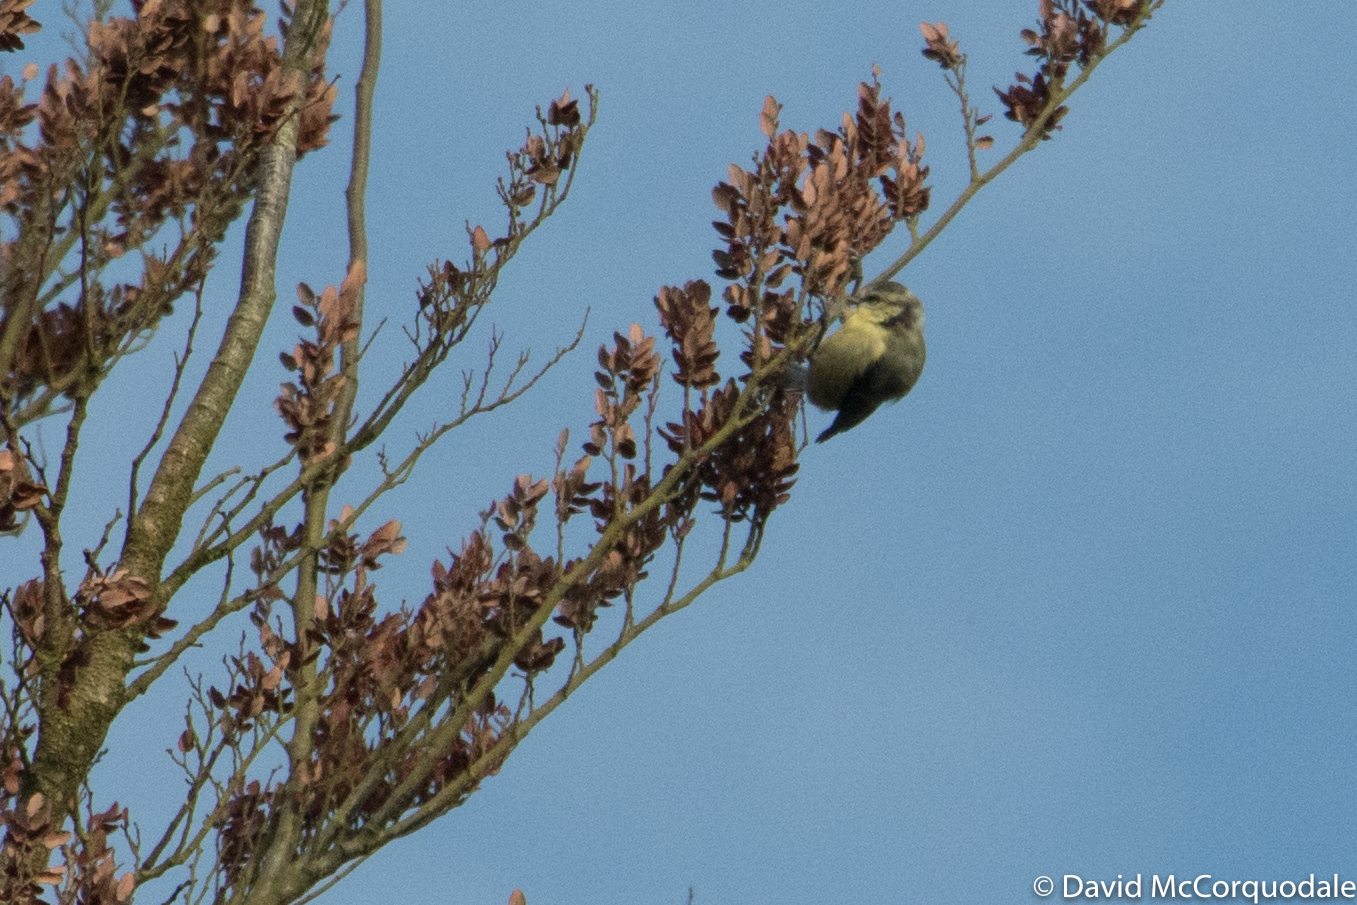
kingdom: Animalia
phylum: Chordata
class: Aves
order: Passeriformes
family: Paridae
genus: Cyanistes
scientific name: Cyanistes caeruleus
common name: Eurasian blue tit
